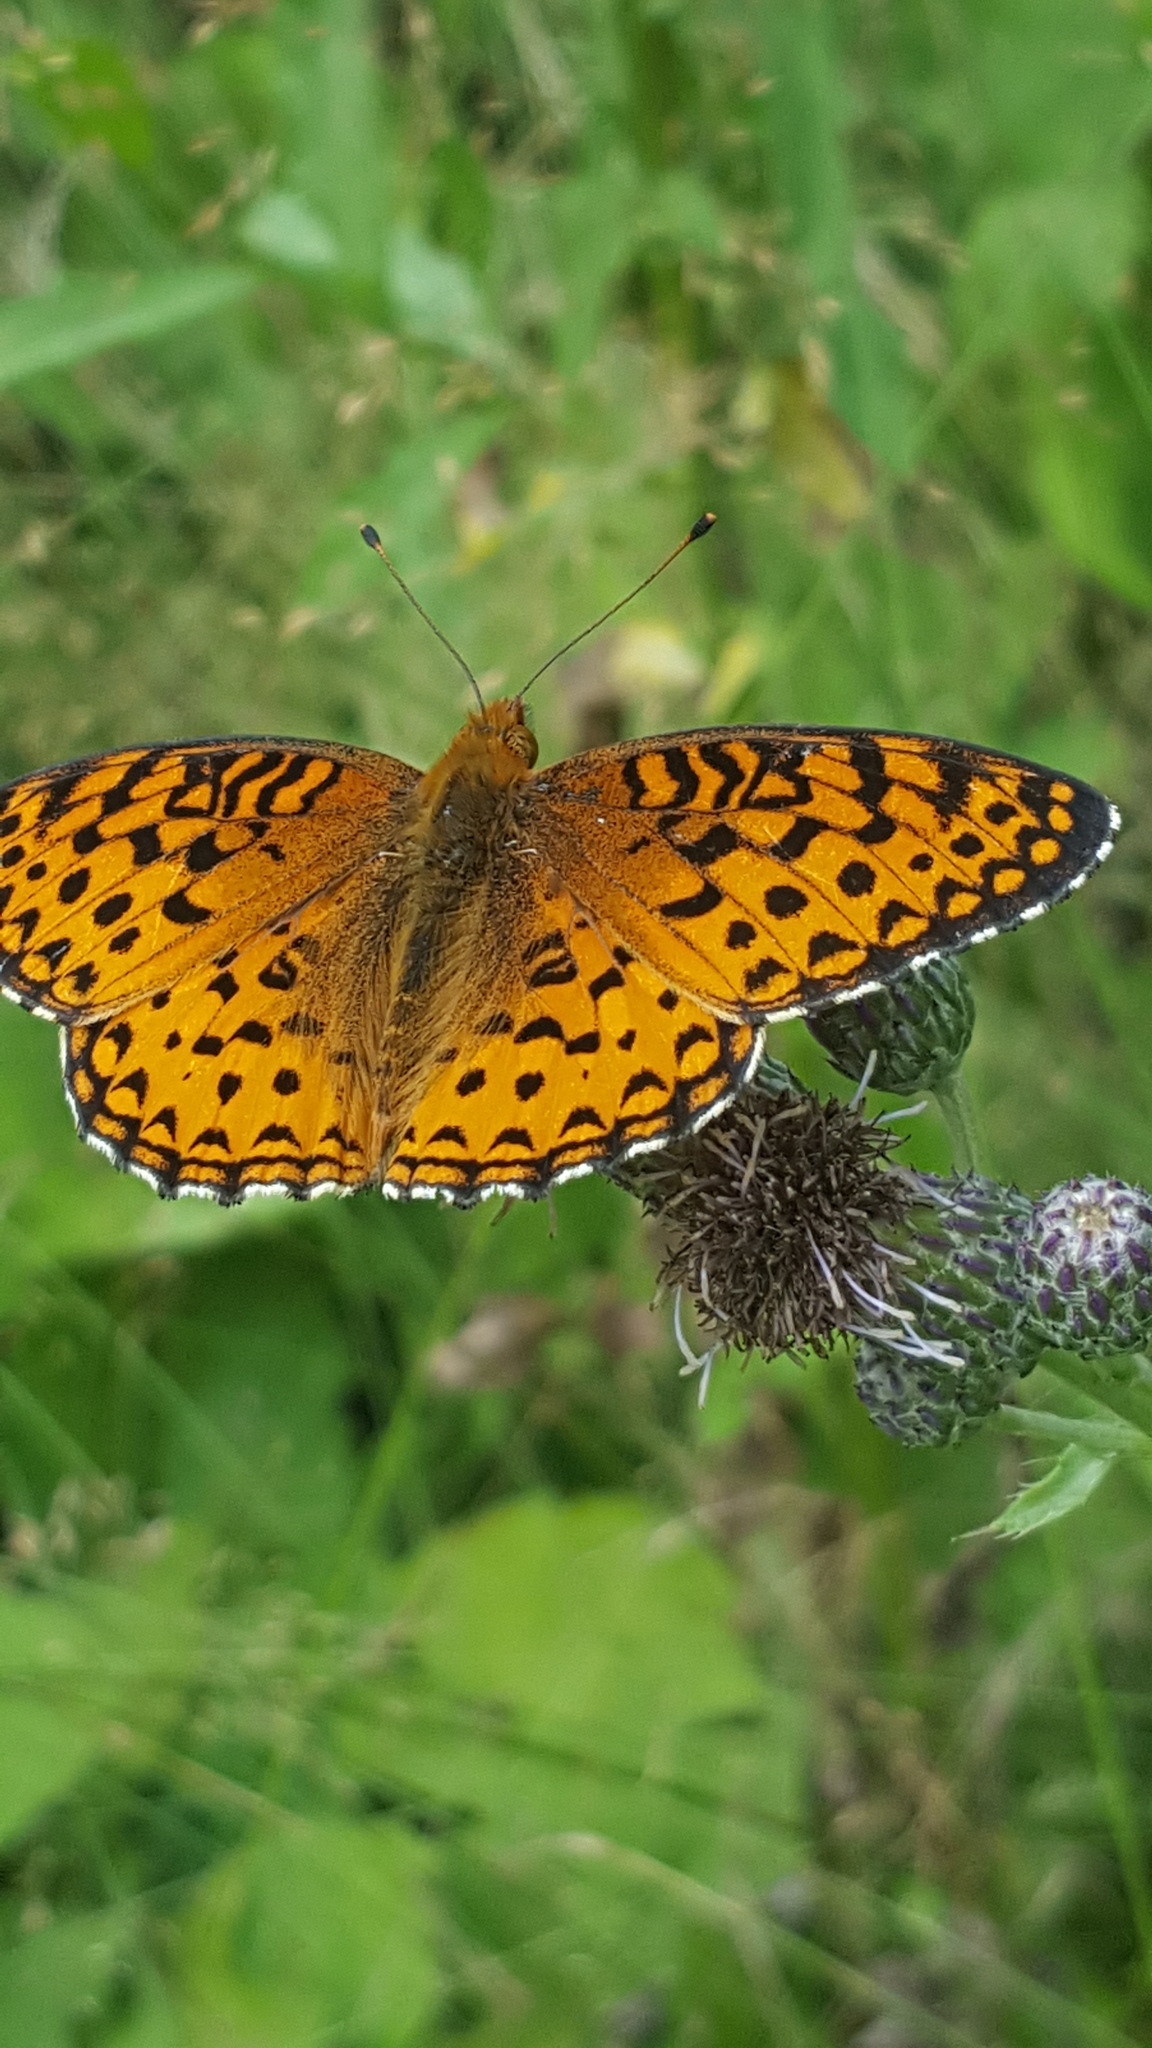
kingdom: Animalia
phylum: Arthropoda
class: Insecta
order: Lepidoptera
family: Nymphalidae
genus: Speyeria
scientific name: Speyeria aphrodite
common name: Aphrodite friitllary
